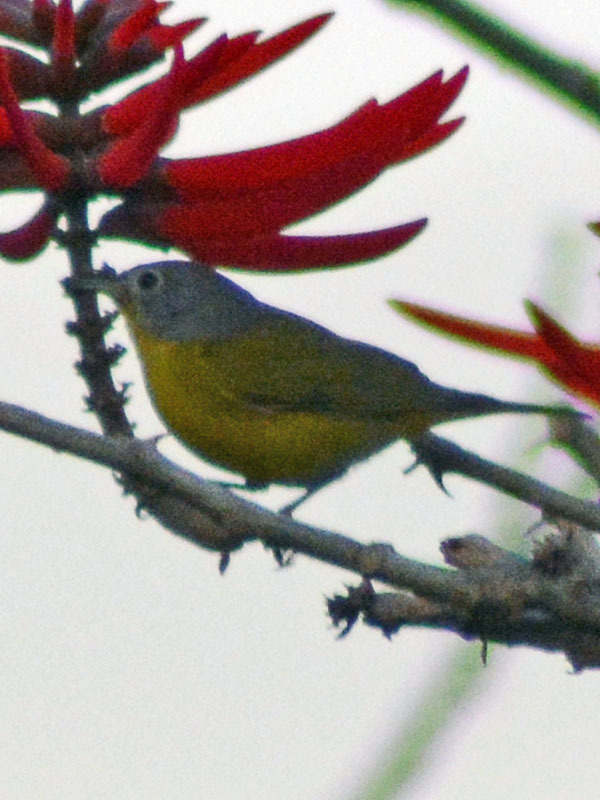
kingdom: Animalia
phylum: Chordata
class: Aves
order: Passeriformes
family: Parulidae
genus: Leiothlypis
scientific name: Leiothlypis ruficapilla
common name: Nashville warbler
